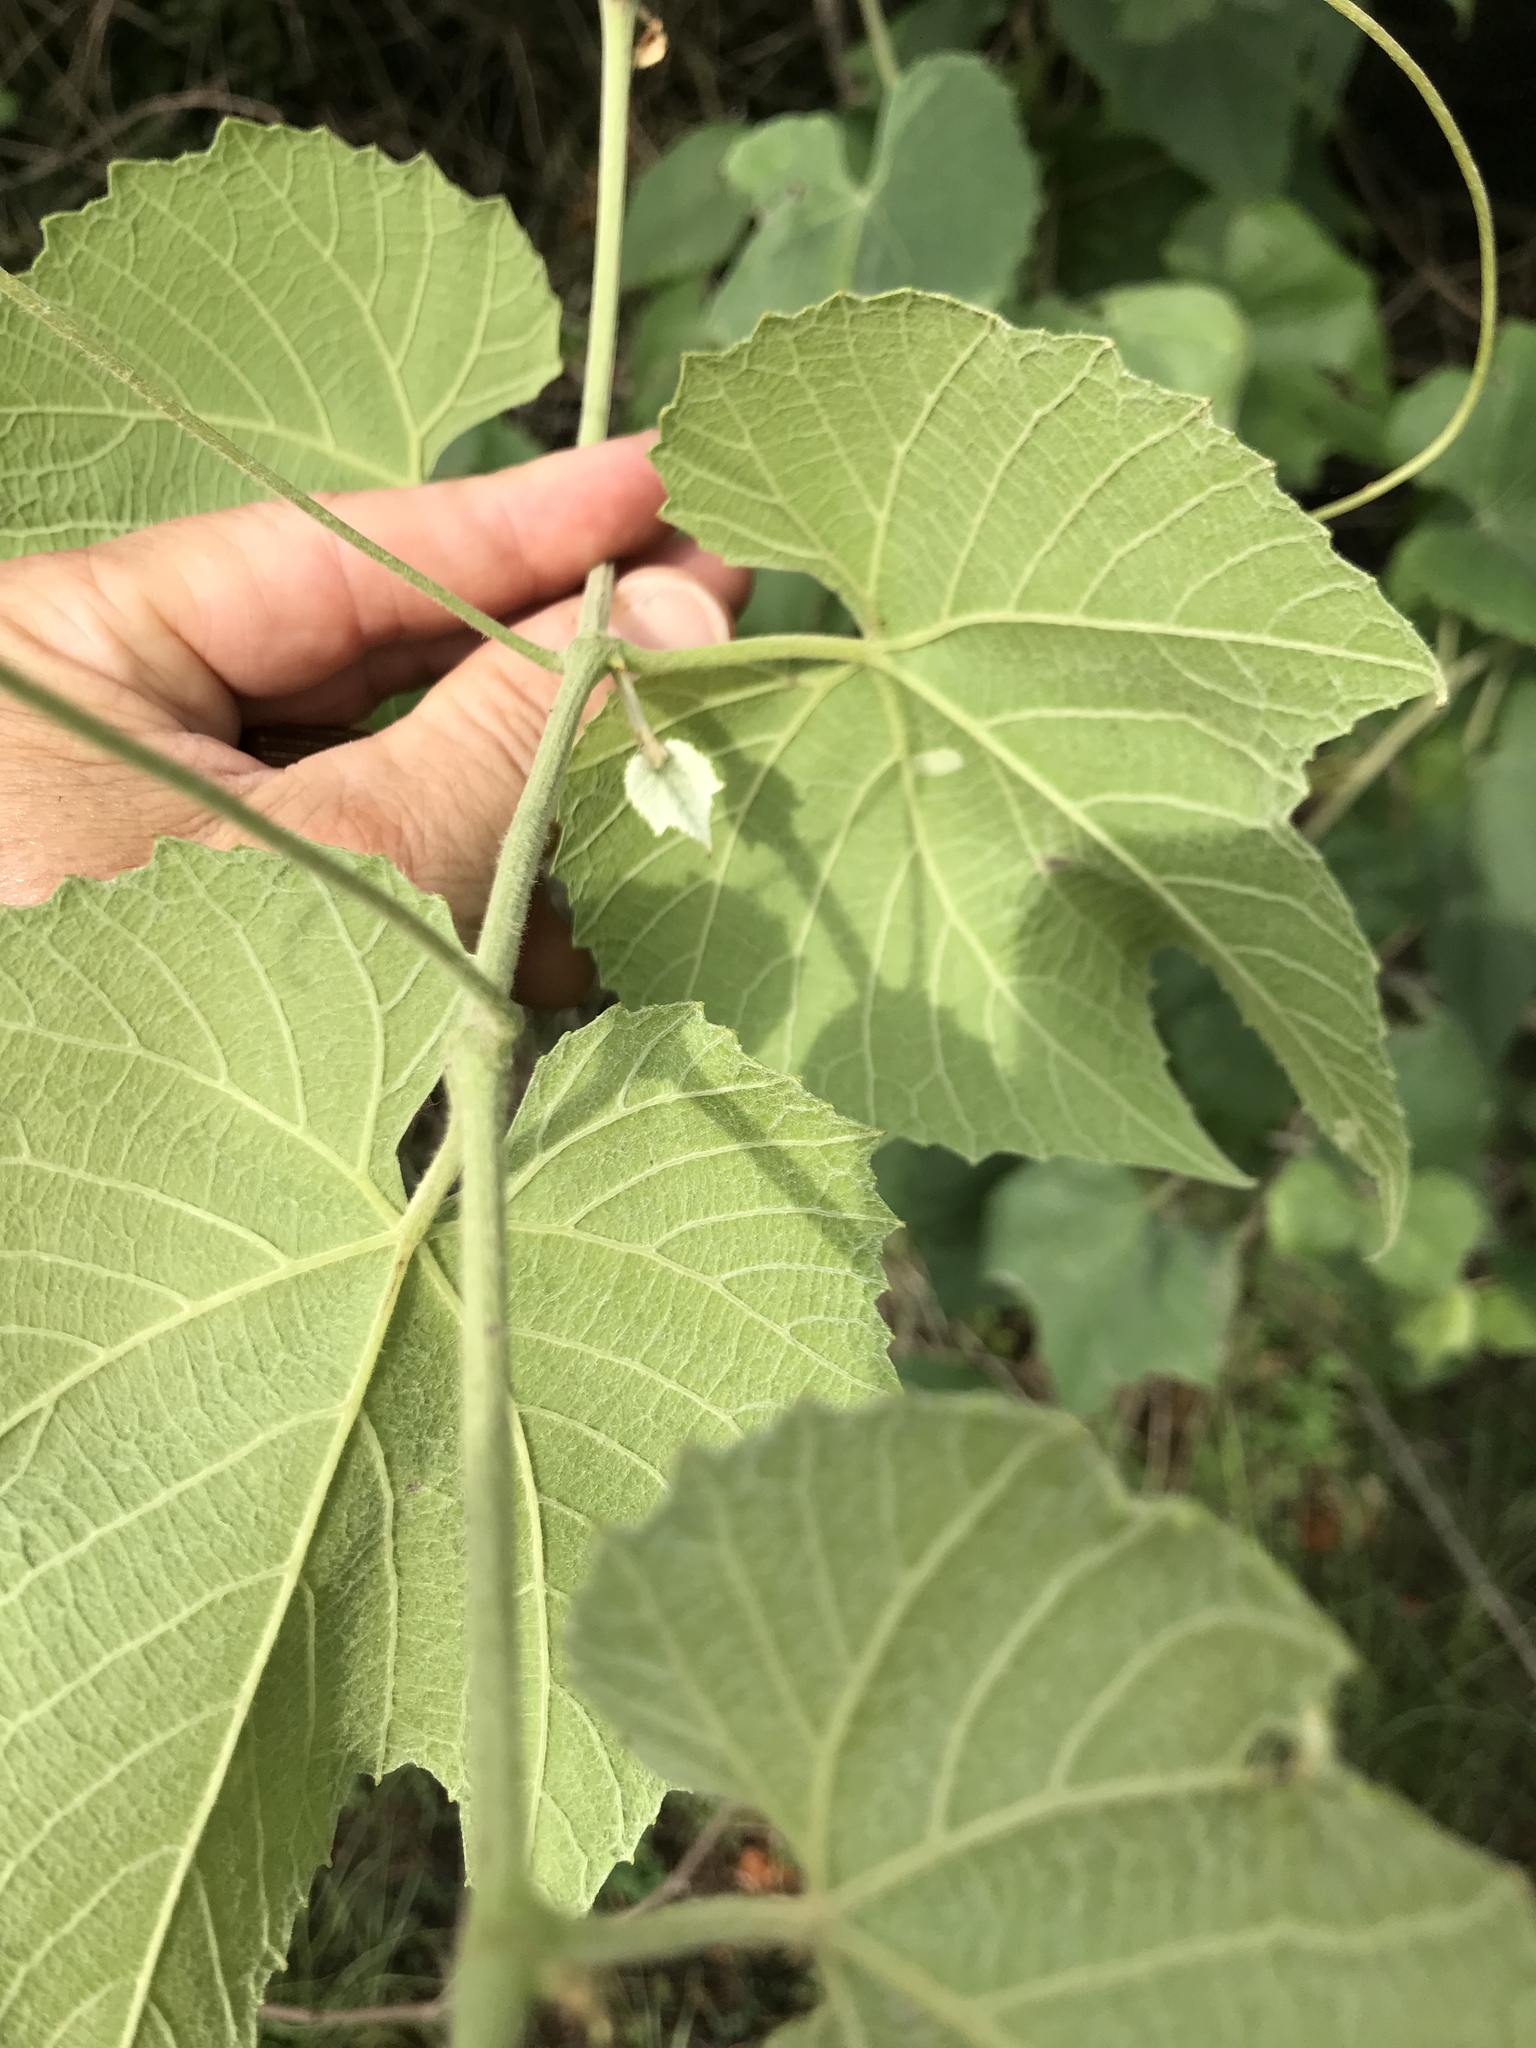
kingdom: Plantae
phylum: Tracheophyta
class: Magnoliopsida
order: Vitales
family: Vitaceae
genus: Vitis
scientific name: Vitis cinerea
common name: Ashy grape
